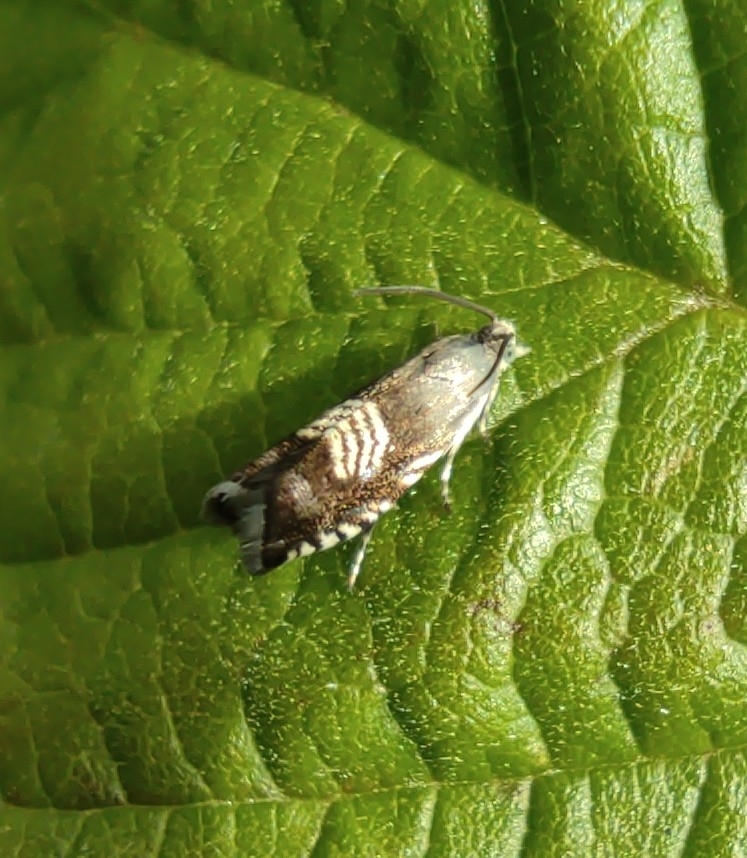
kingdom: Animalia
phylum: Arthropoda
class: Insecta
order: Lepidoptera
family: Tortricidae
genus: Grapholita
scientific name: Grapholita compositella
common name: Triple-stripe piercer
